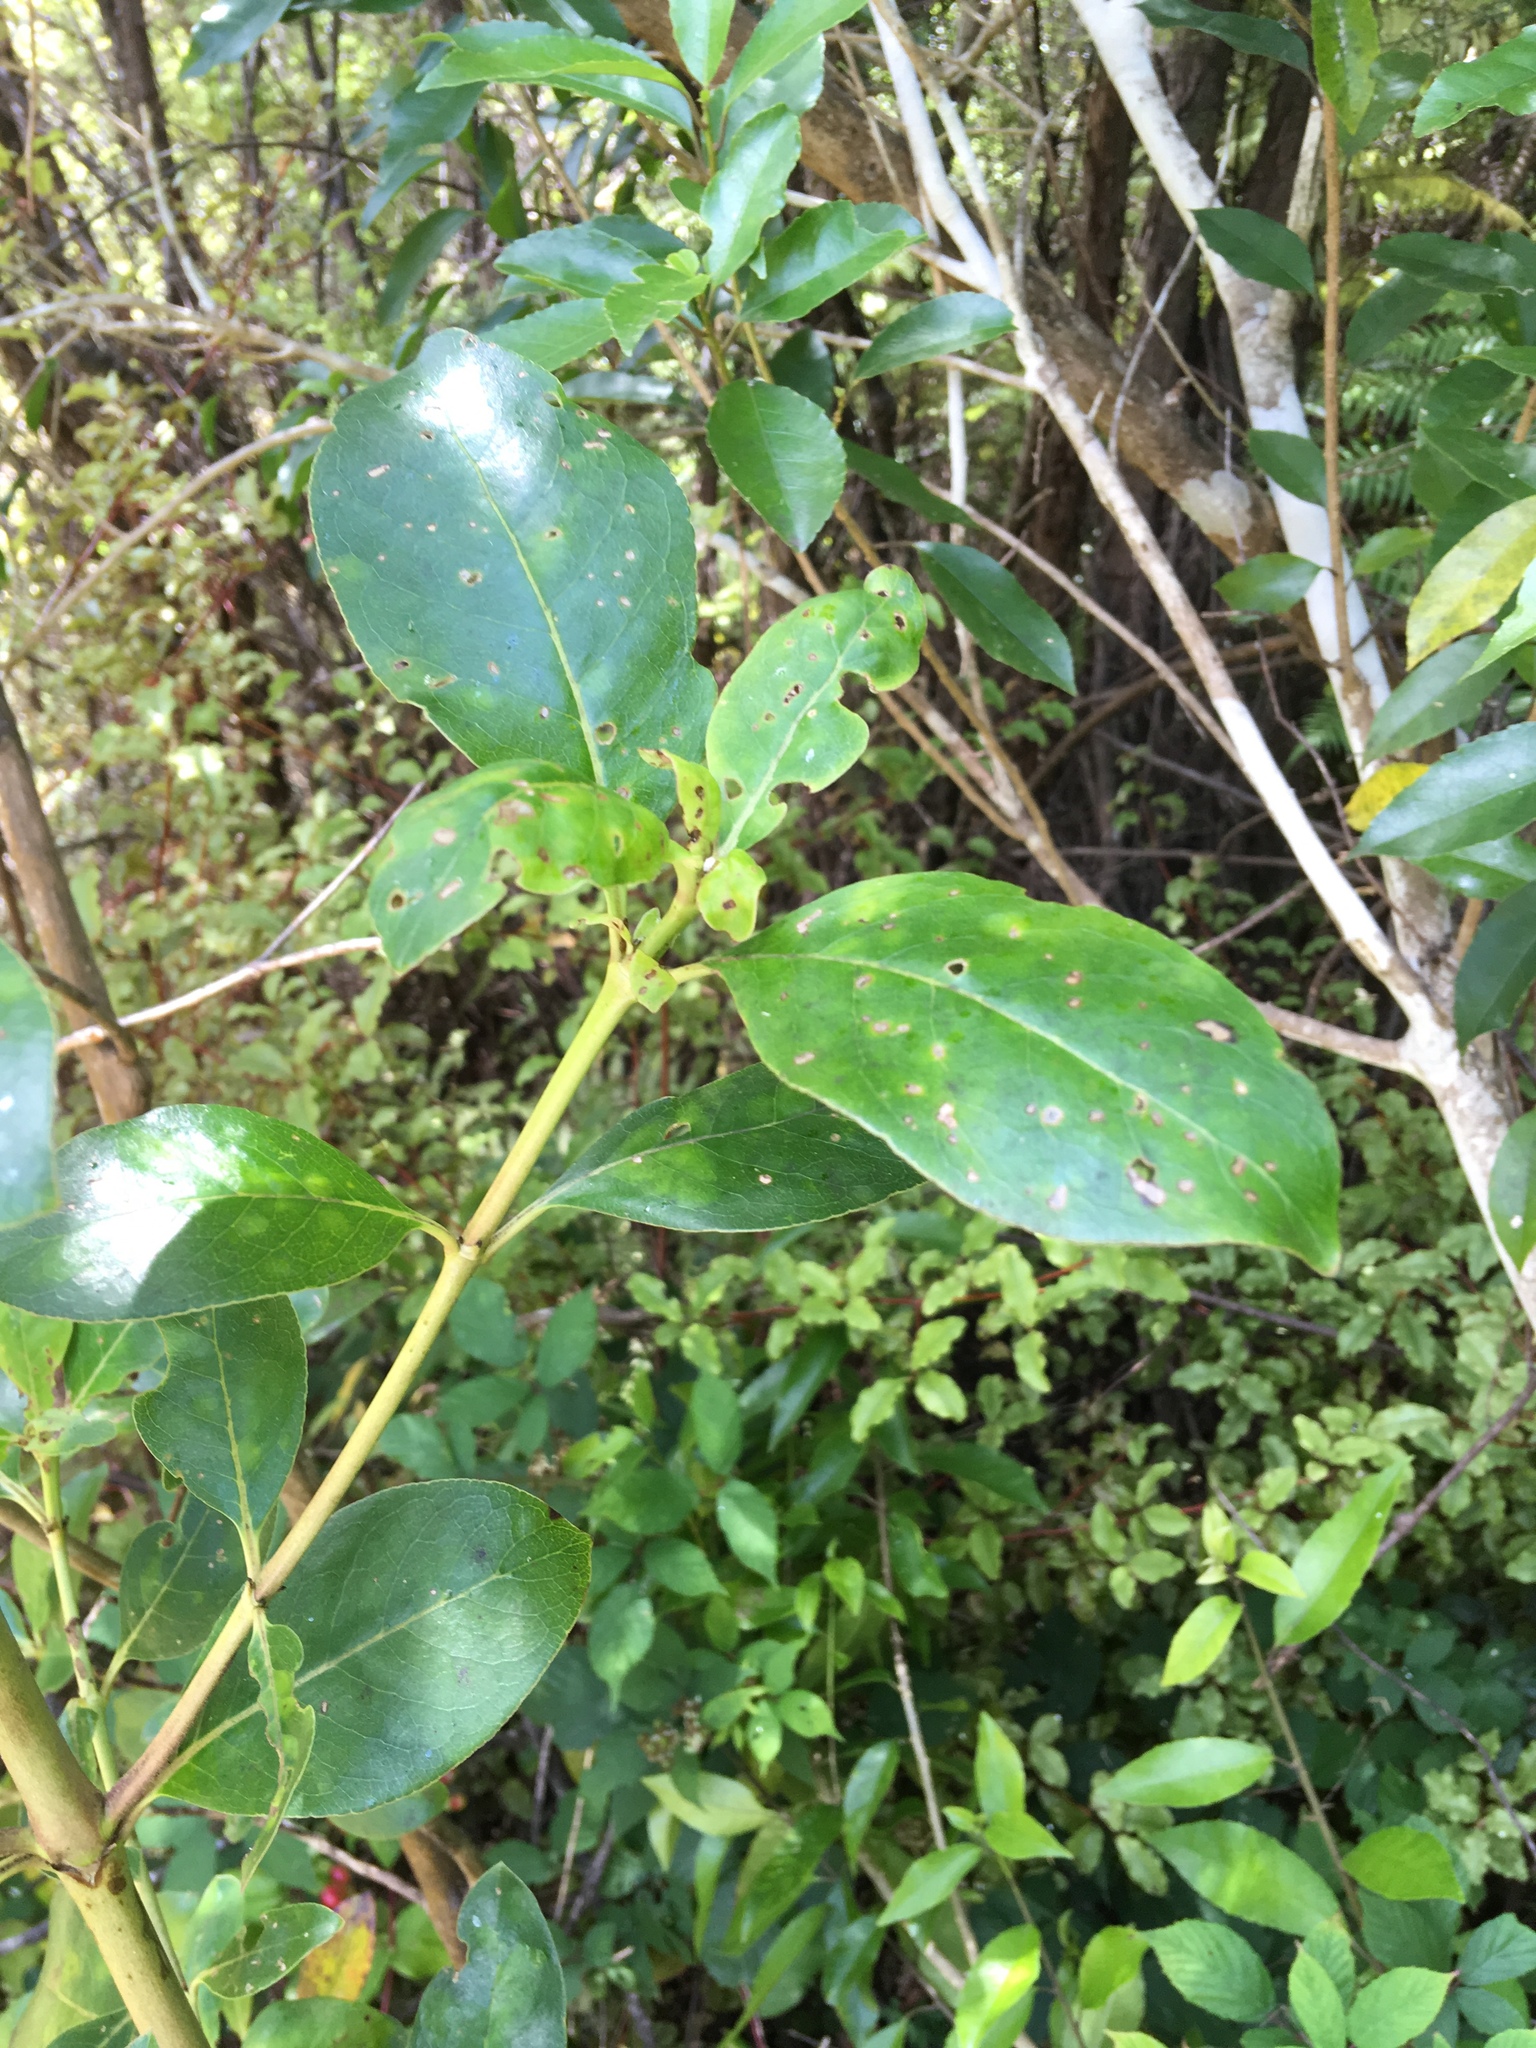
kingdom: Plantae
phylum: Tracheophyta
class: Magnoliopsida
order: Gentianales
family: Rubiaceae
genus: Coprosma
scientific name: Coprosma robusta
